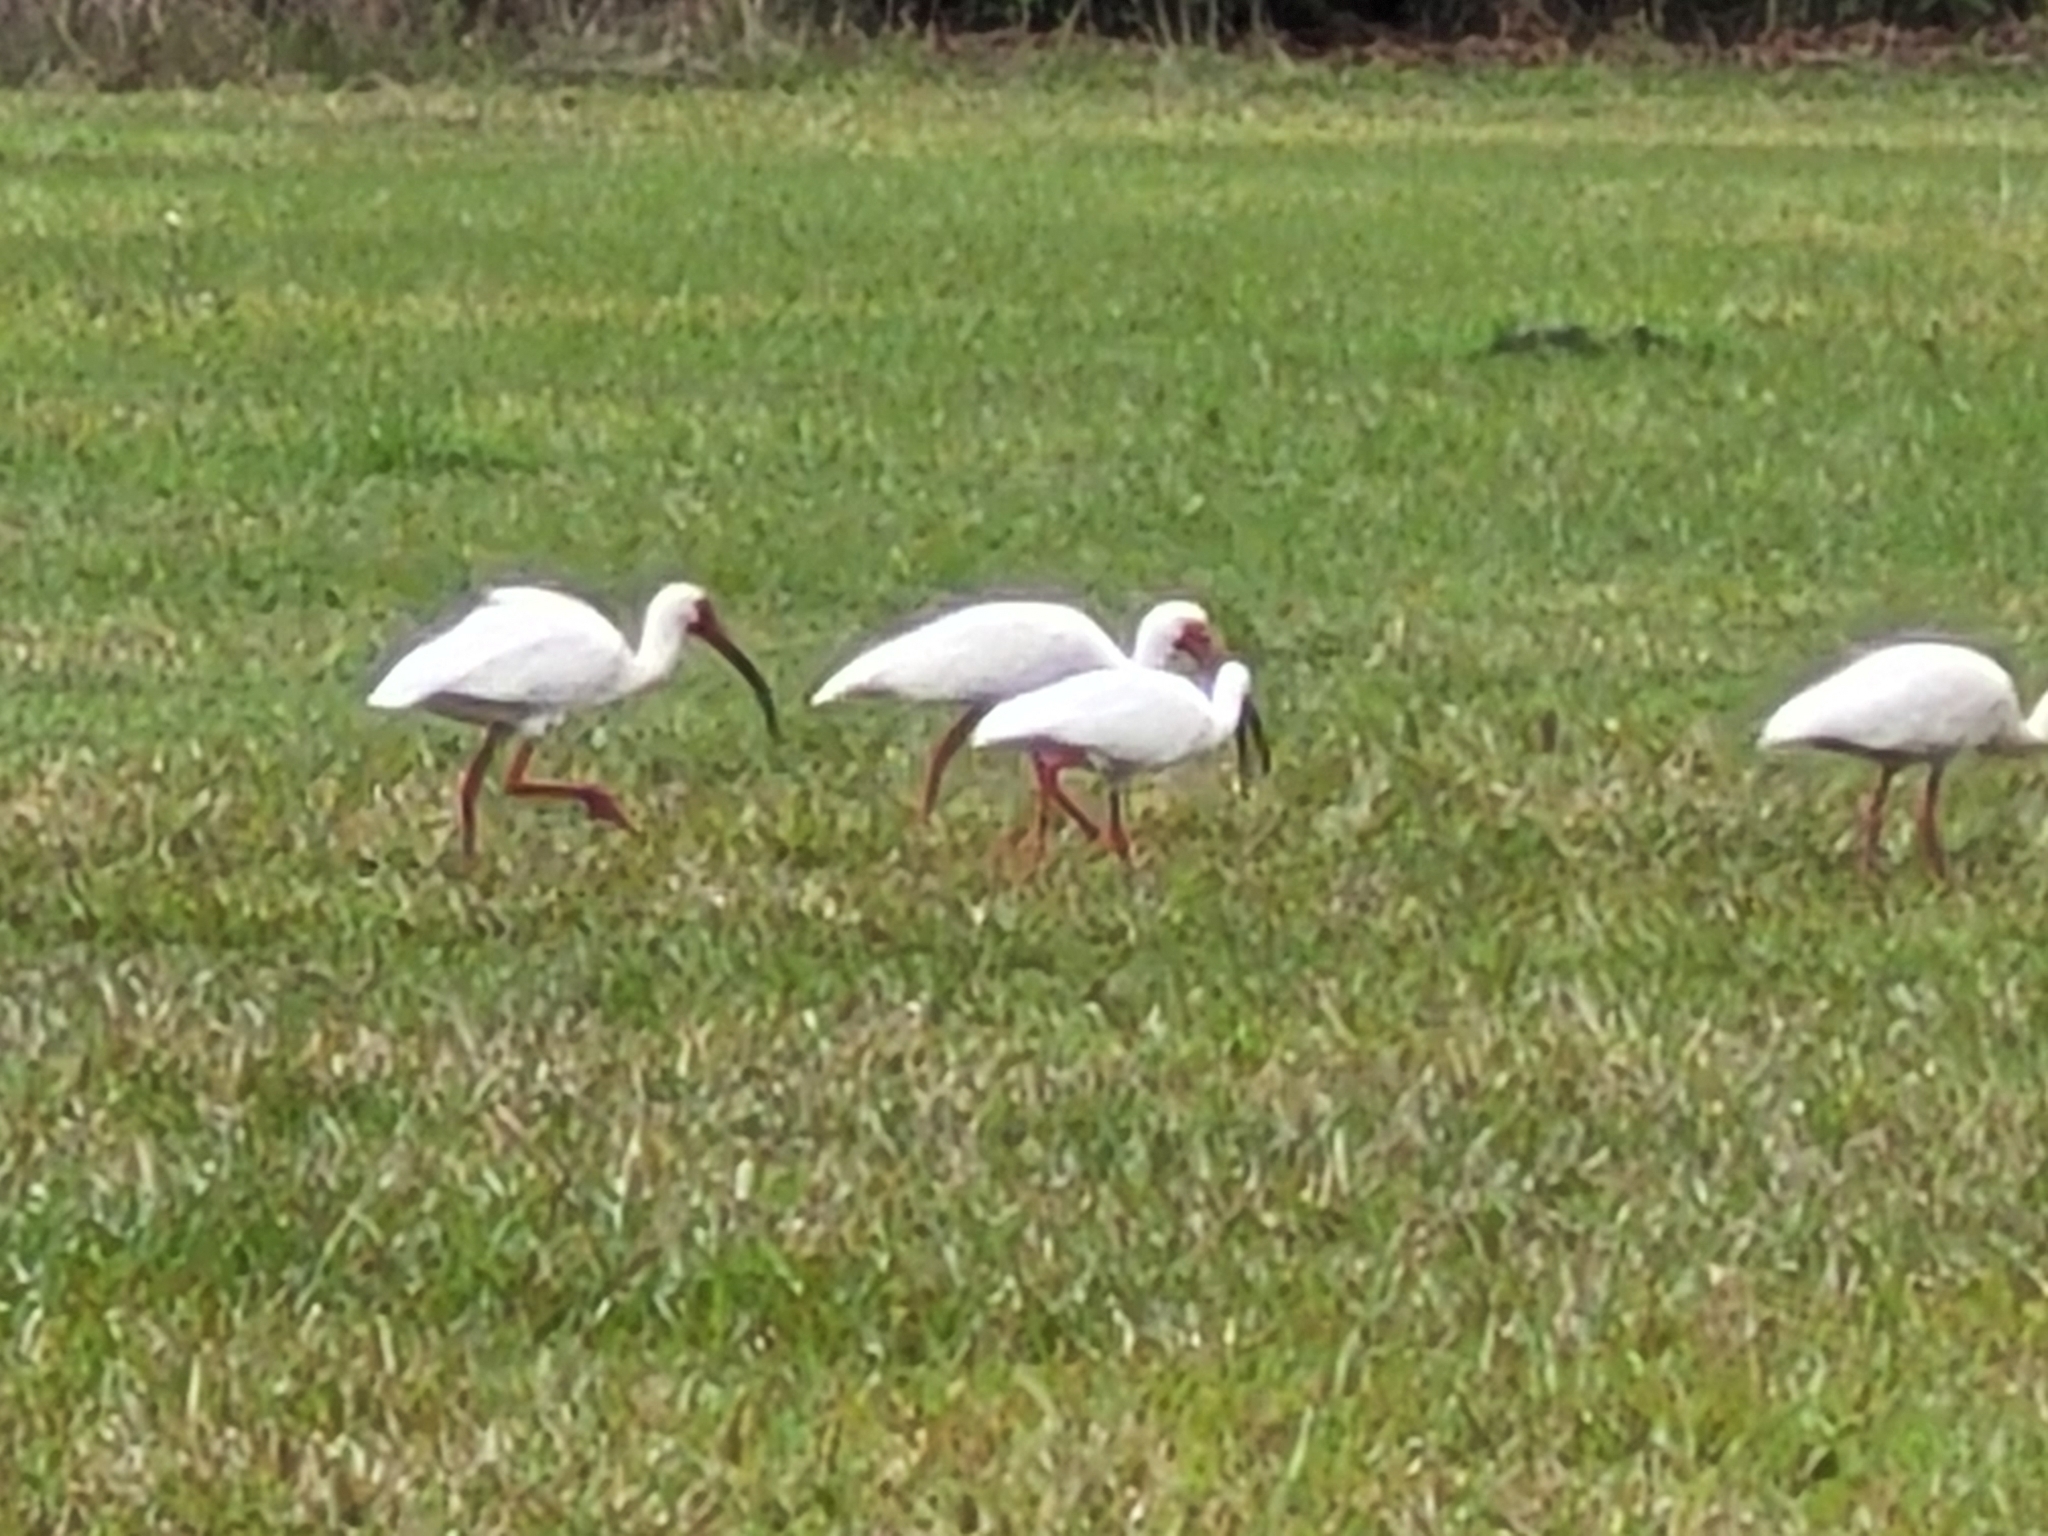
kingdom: Animalia
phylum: Chordata
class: Aves
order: Pelecaniformes
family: Threskiornithidae
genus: Eudocimus
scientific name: Eudocimus albus
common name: White ibis
